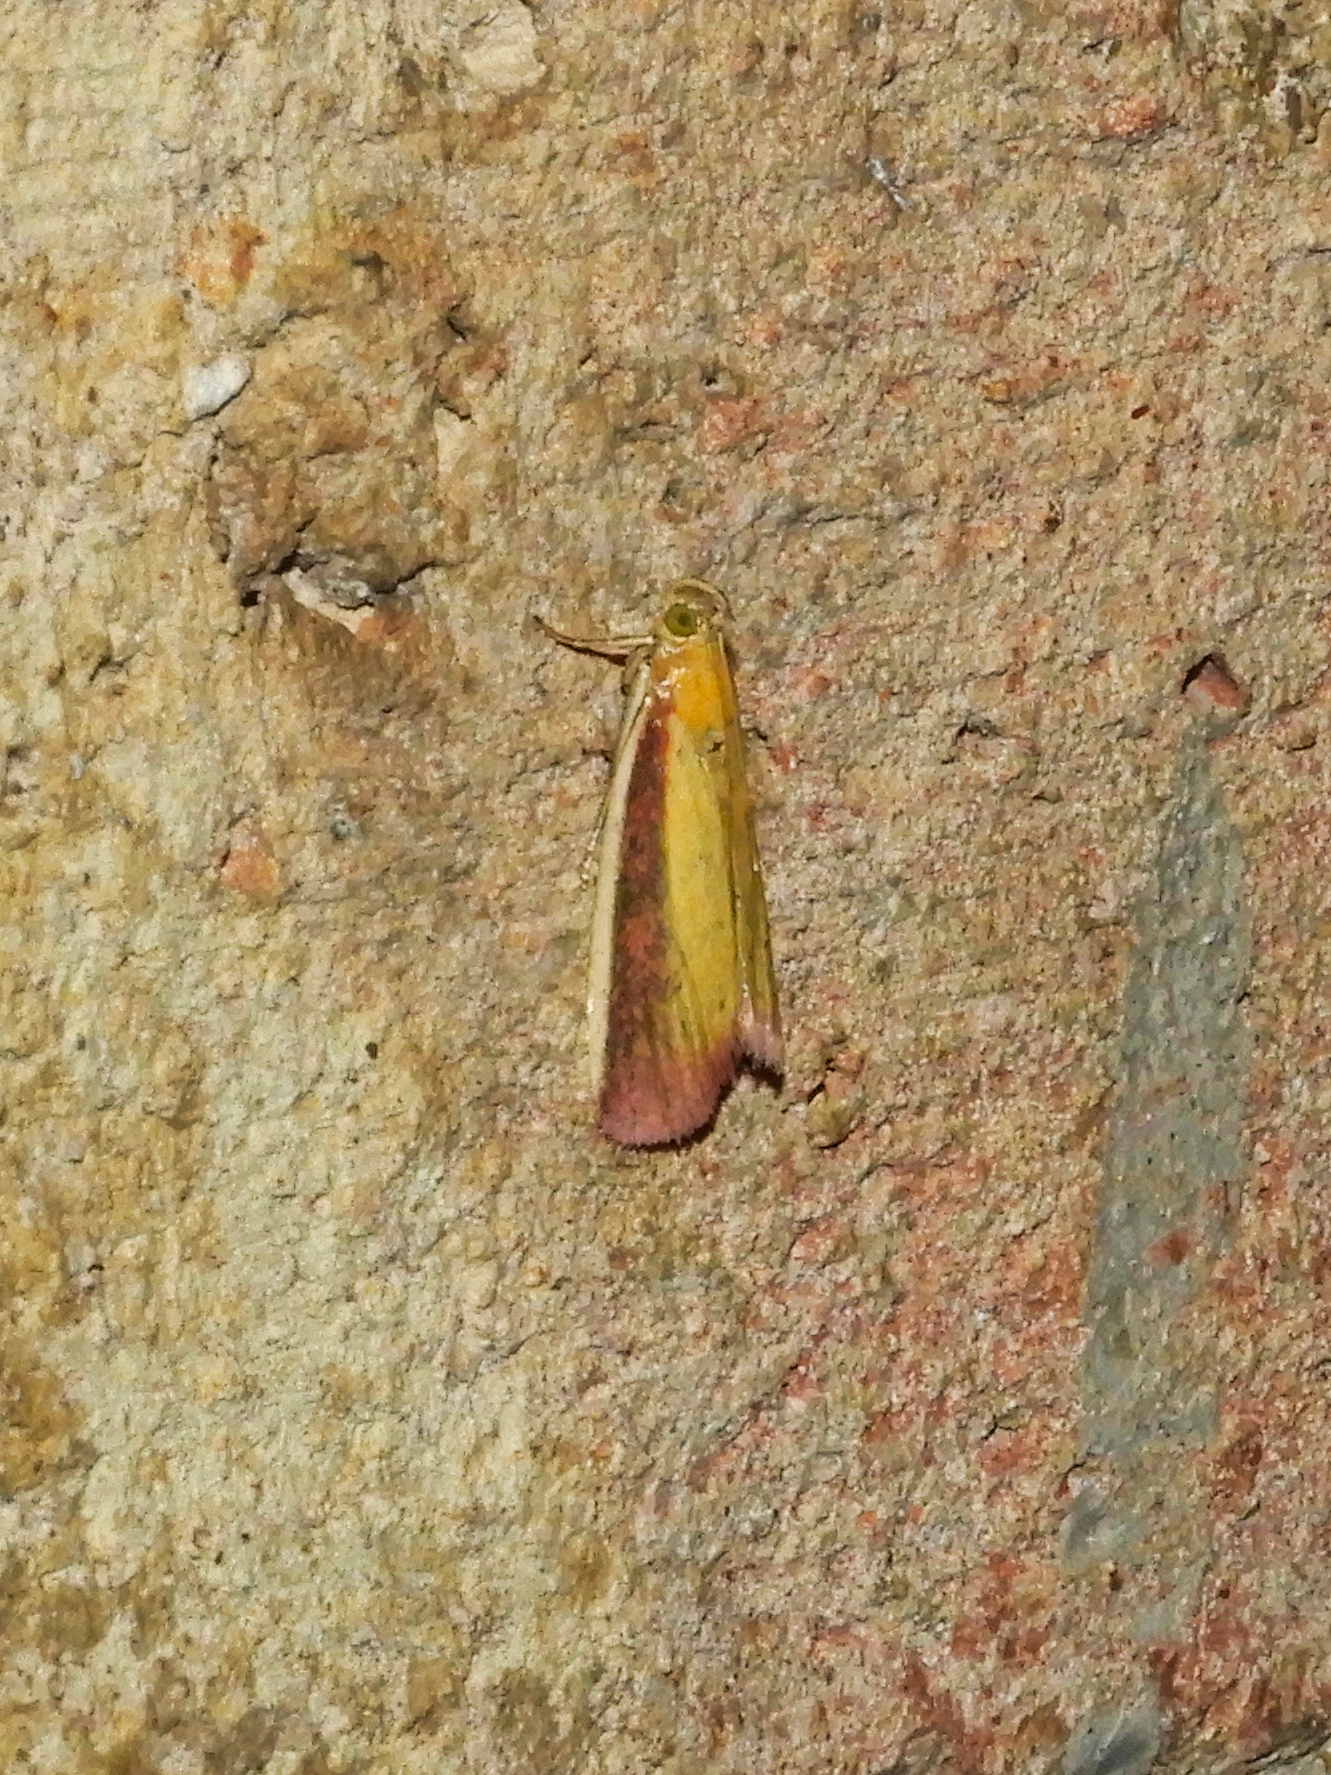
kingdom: Animalia
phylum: Arthropoda
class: Insecta
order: Lepidoptera
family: Pyralidae
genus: Oncocera
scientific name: Oncocera semirubella
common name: Rosy-striped knot-horn
